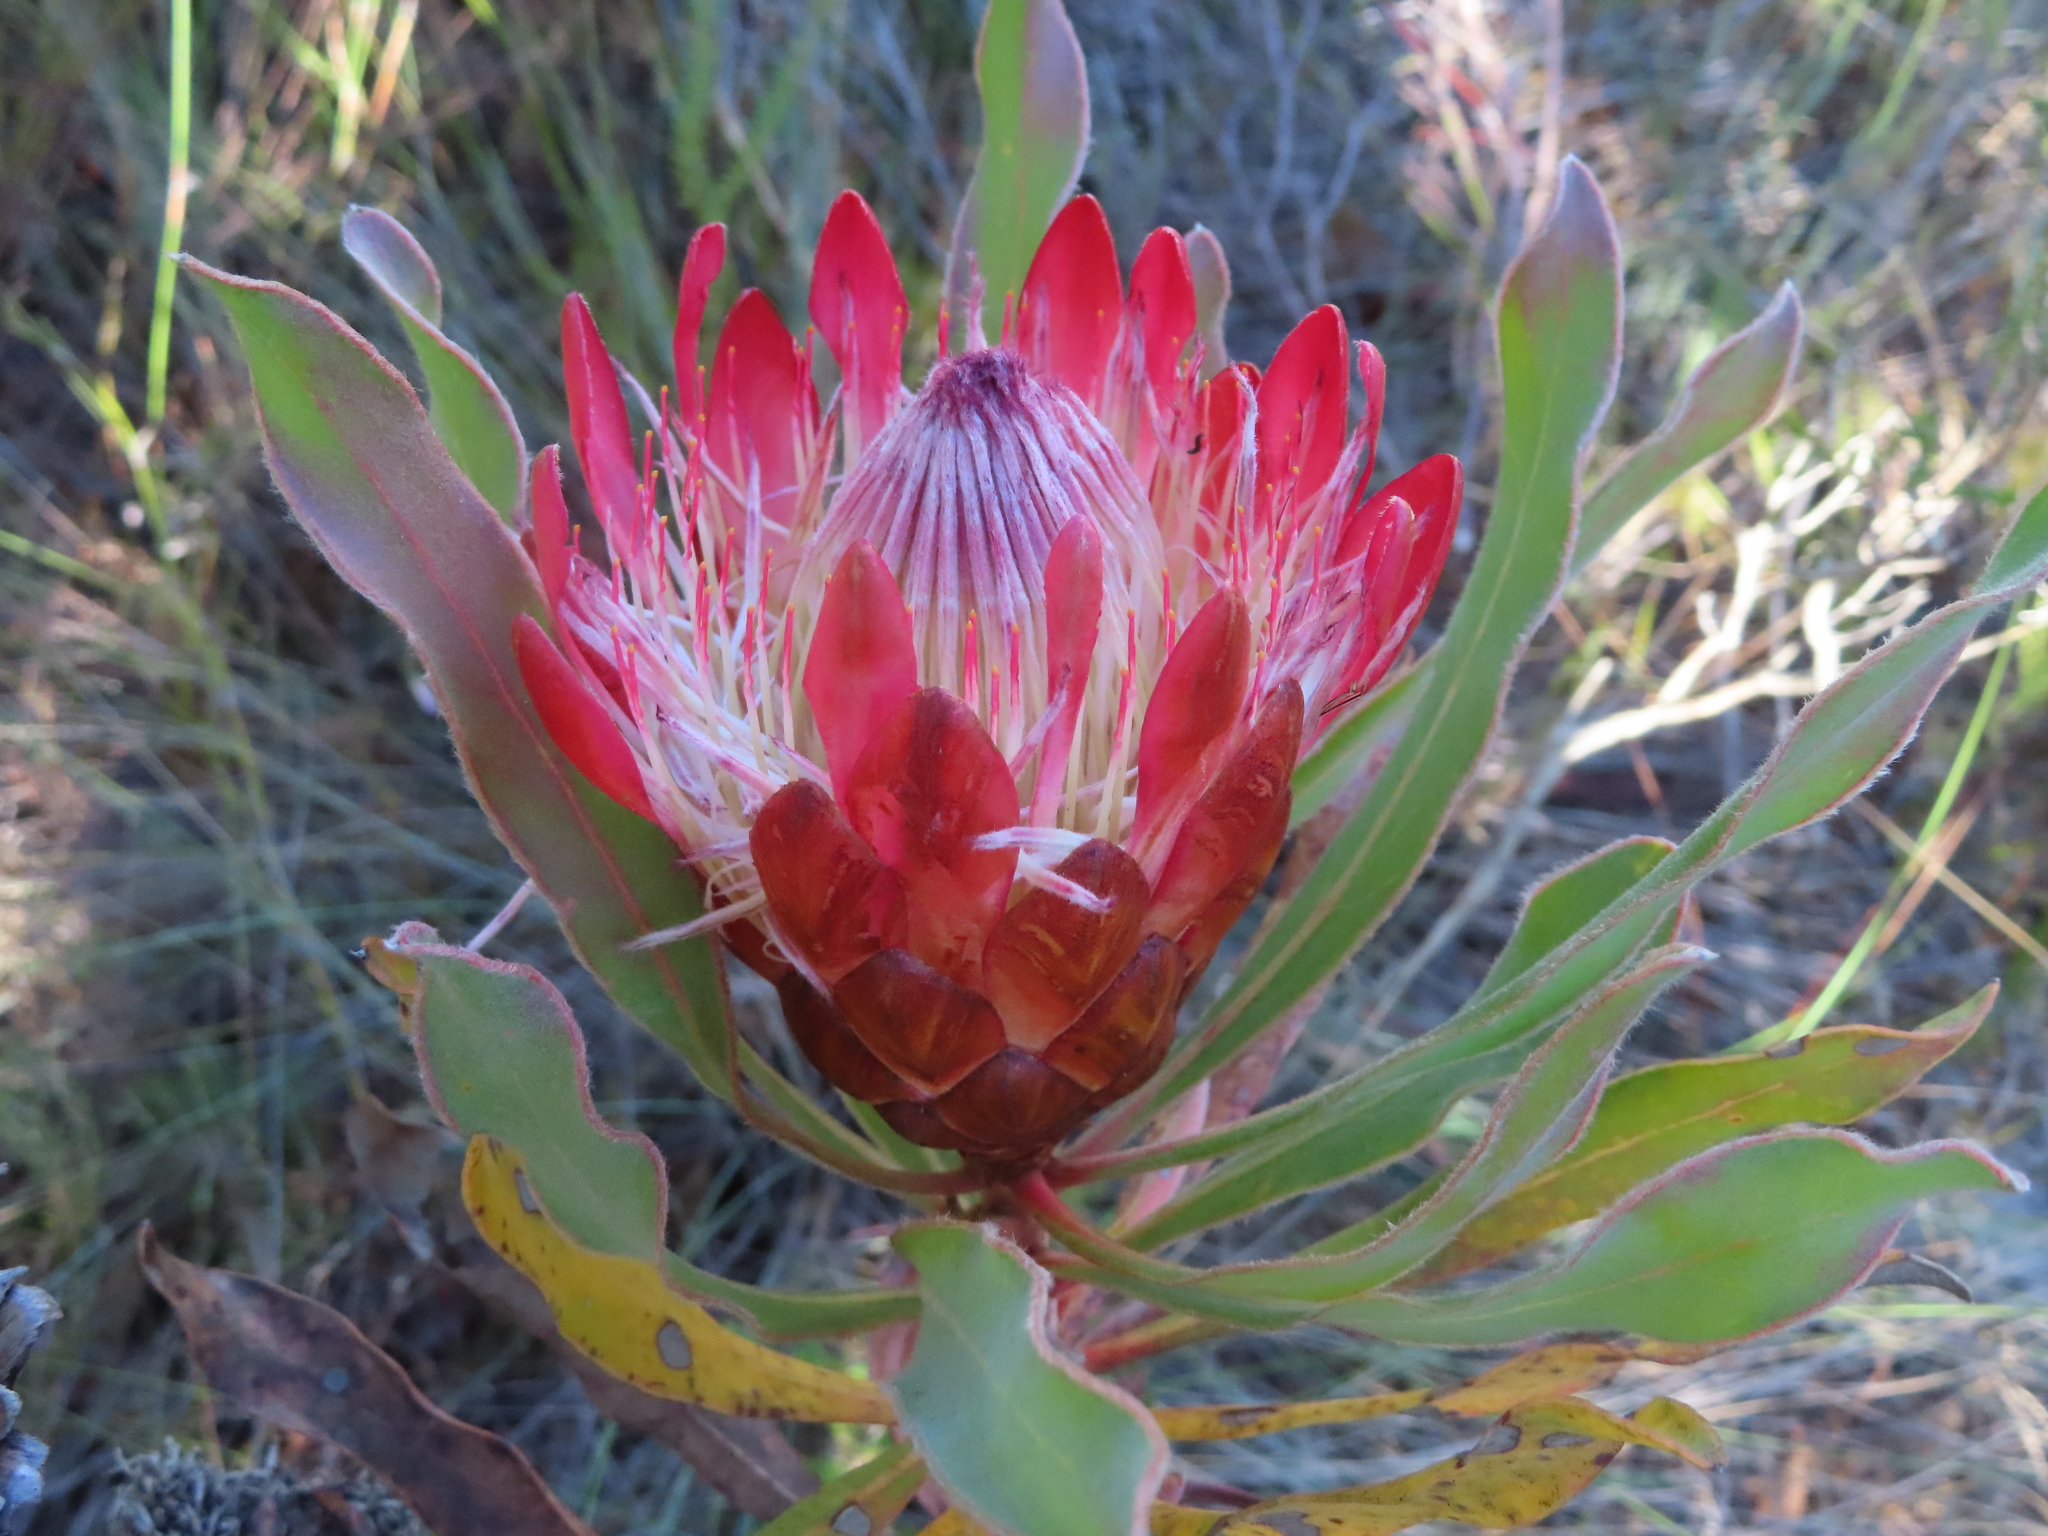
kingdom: Plantae
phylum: Tracheophyta
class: Magnoliopsida
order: Proteales
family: Proteaceae
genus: Protea
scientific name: Protea susannae
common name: Foetid-leaf sugarbush
